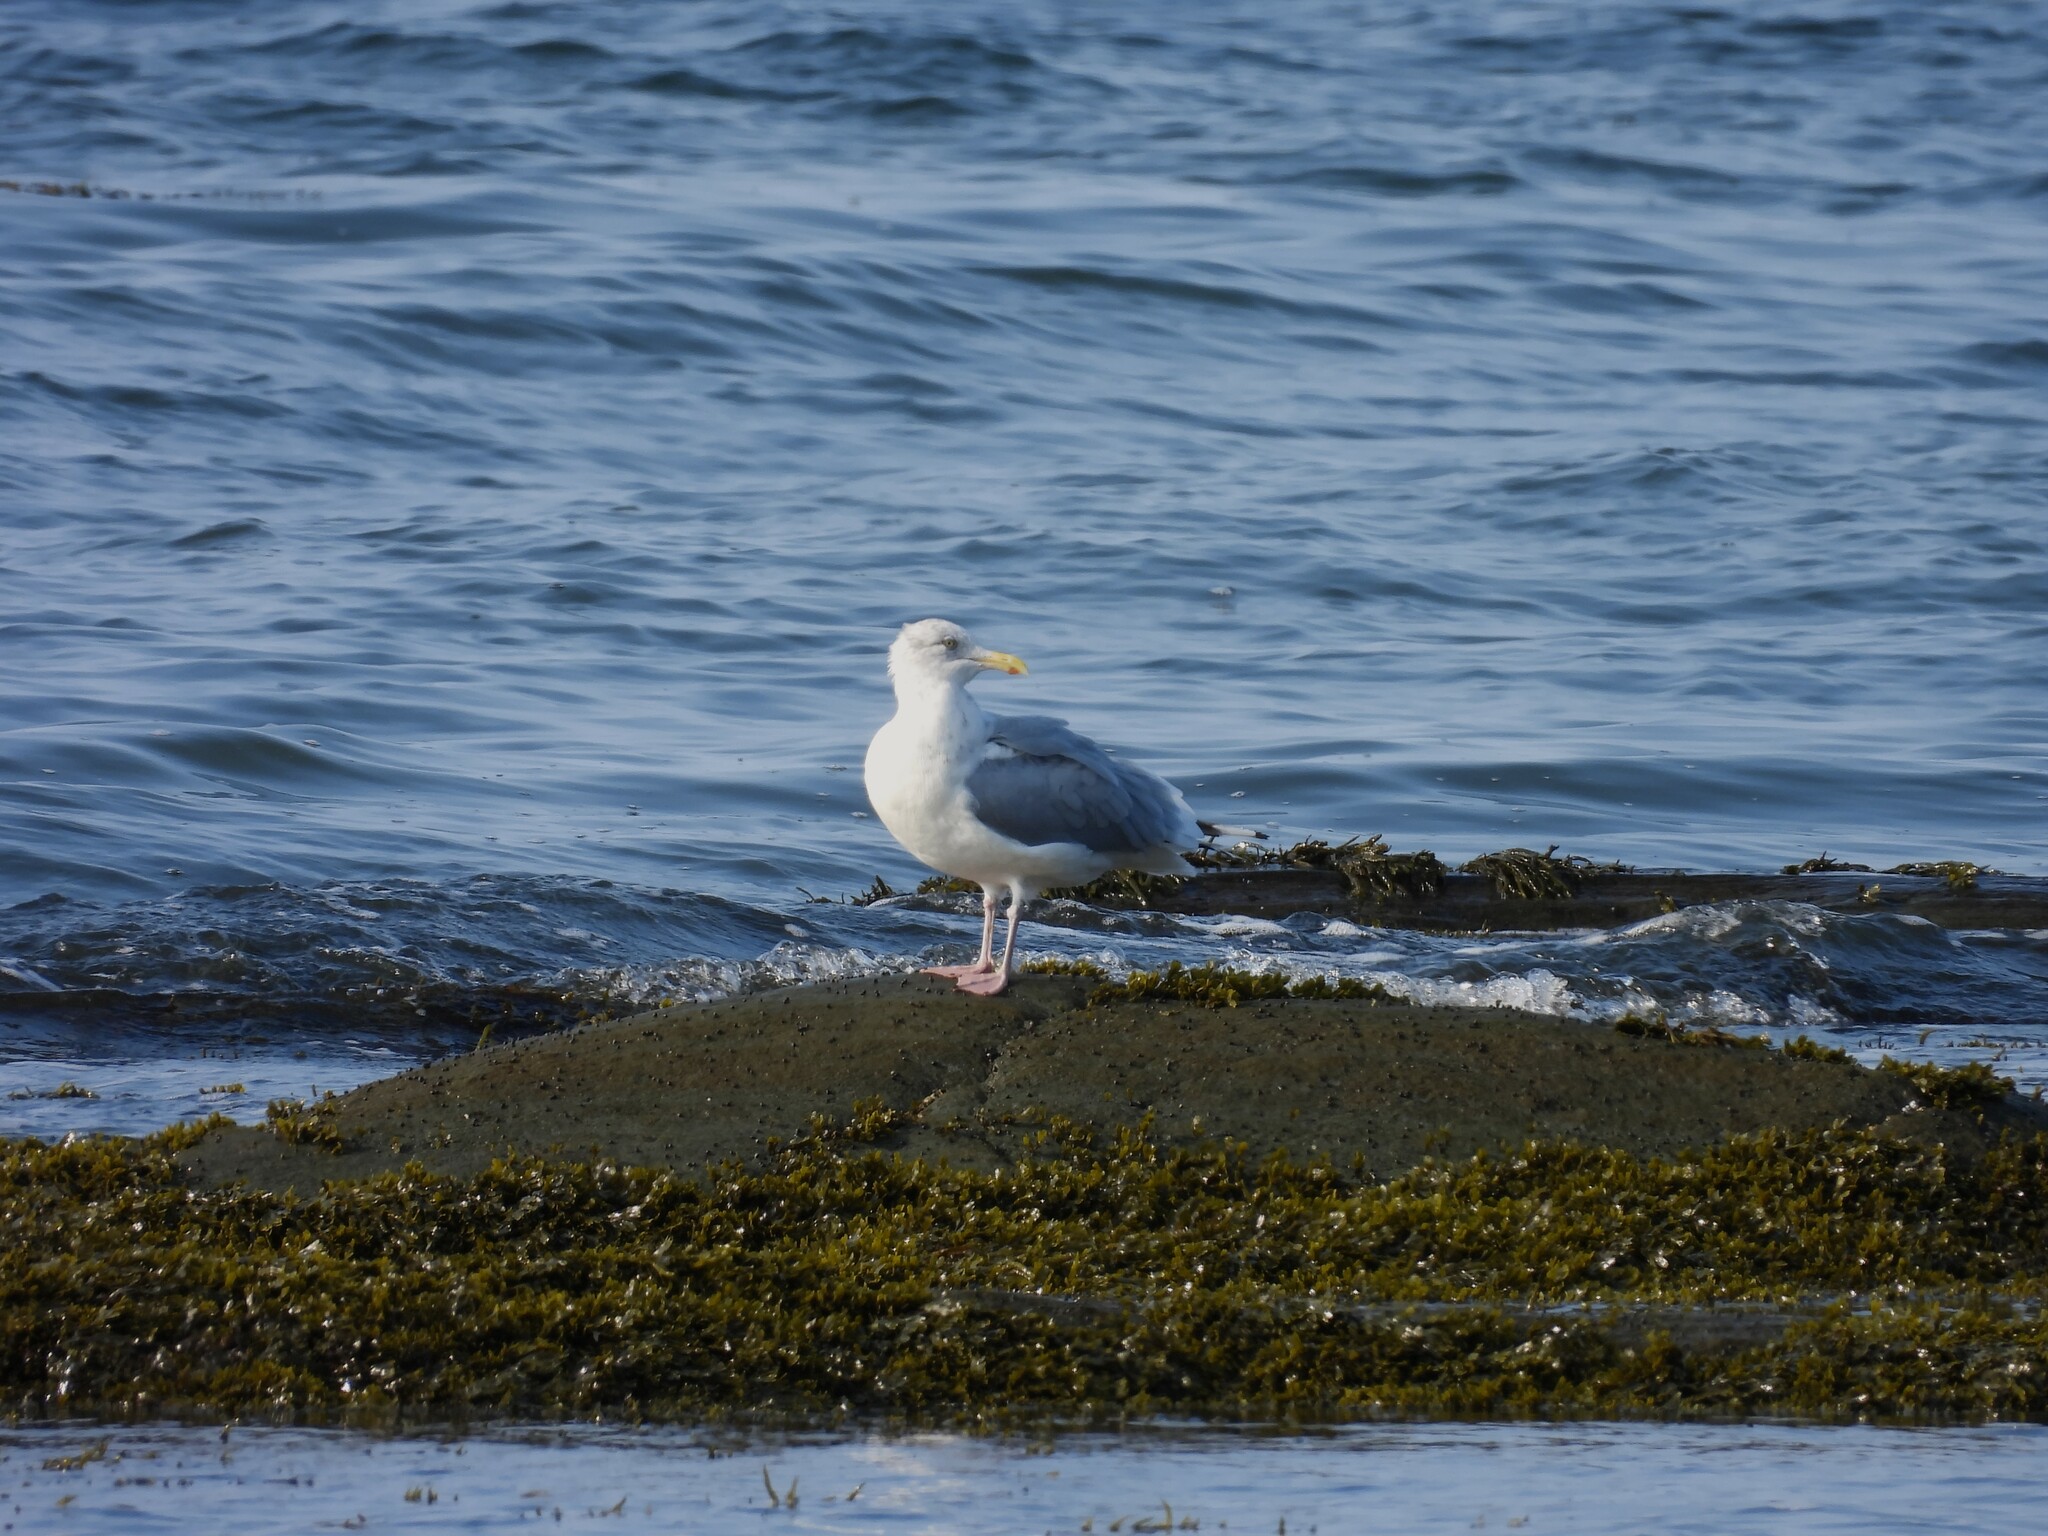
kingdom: Animalia
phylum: Chordata
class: Aves
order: Charadriiformes
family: Laridae
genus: Larus
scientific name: Larus argentatus
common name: Herring gull
